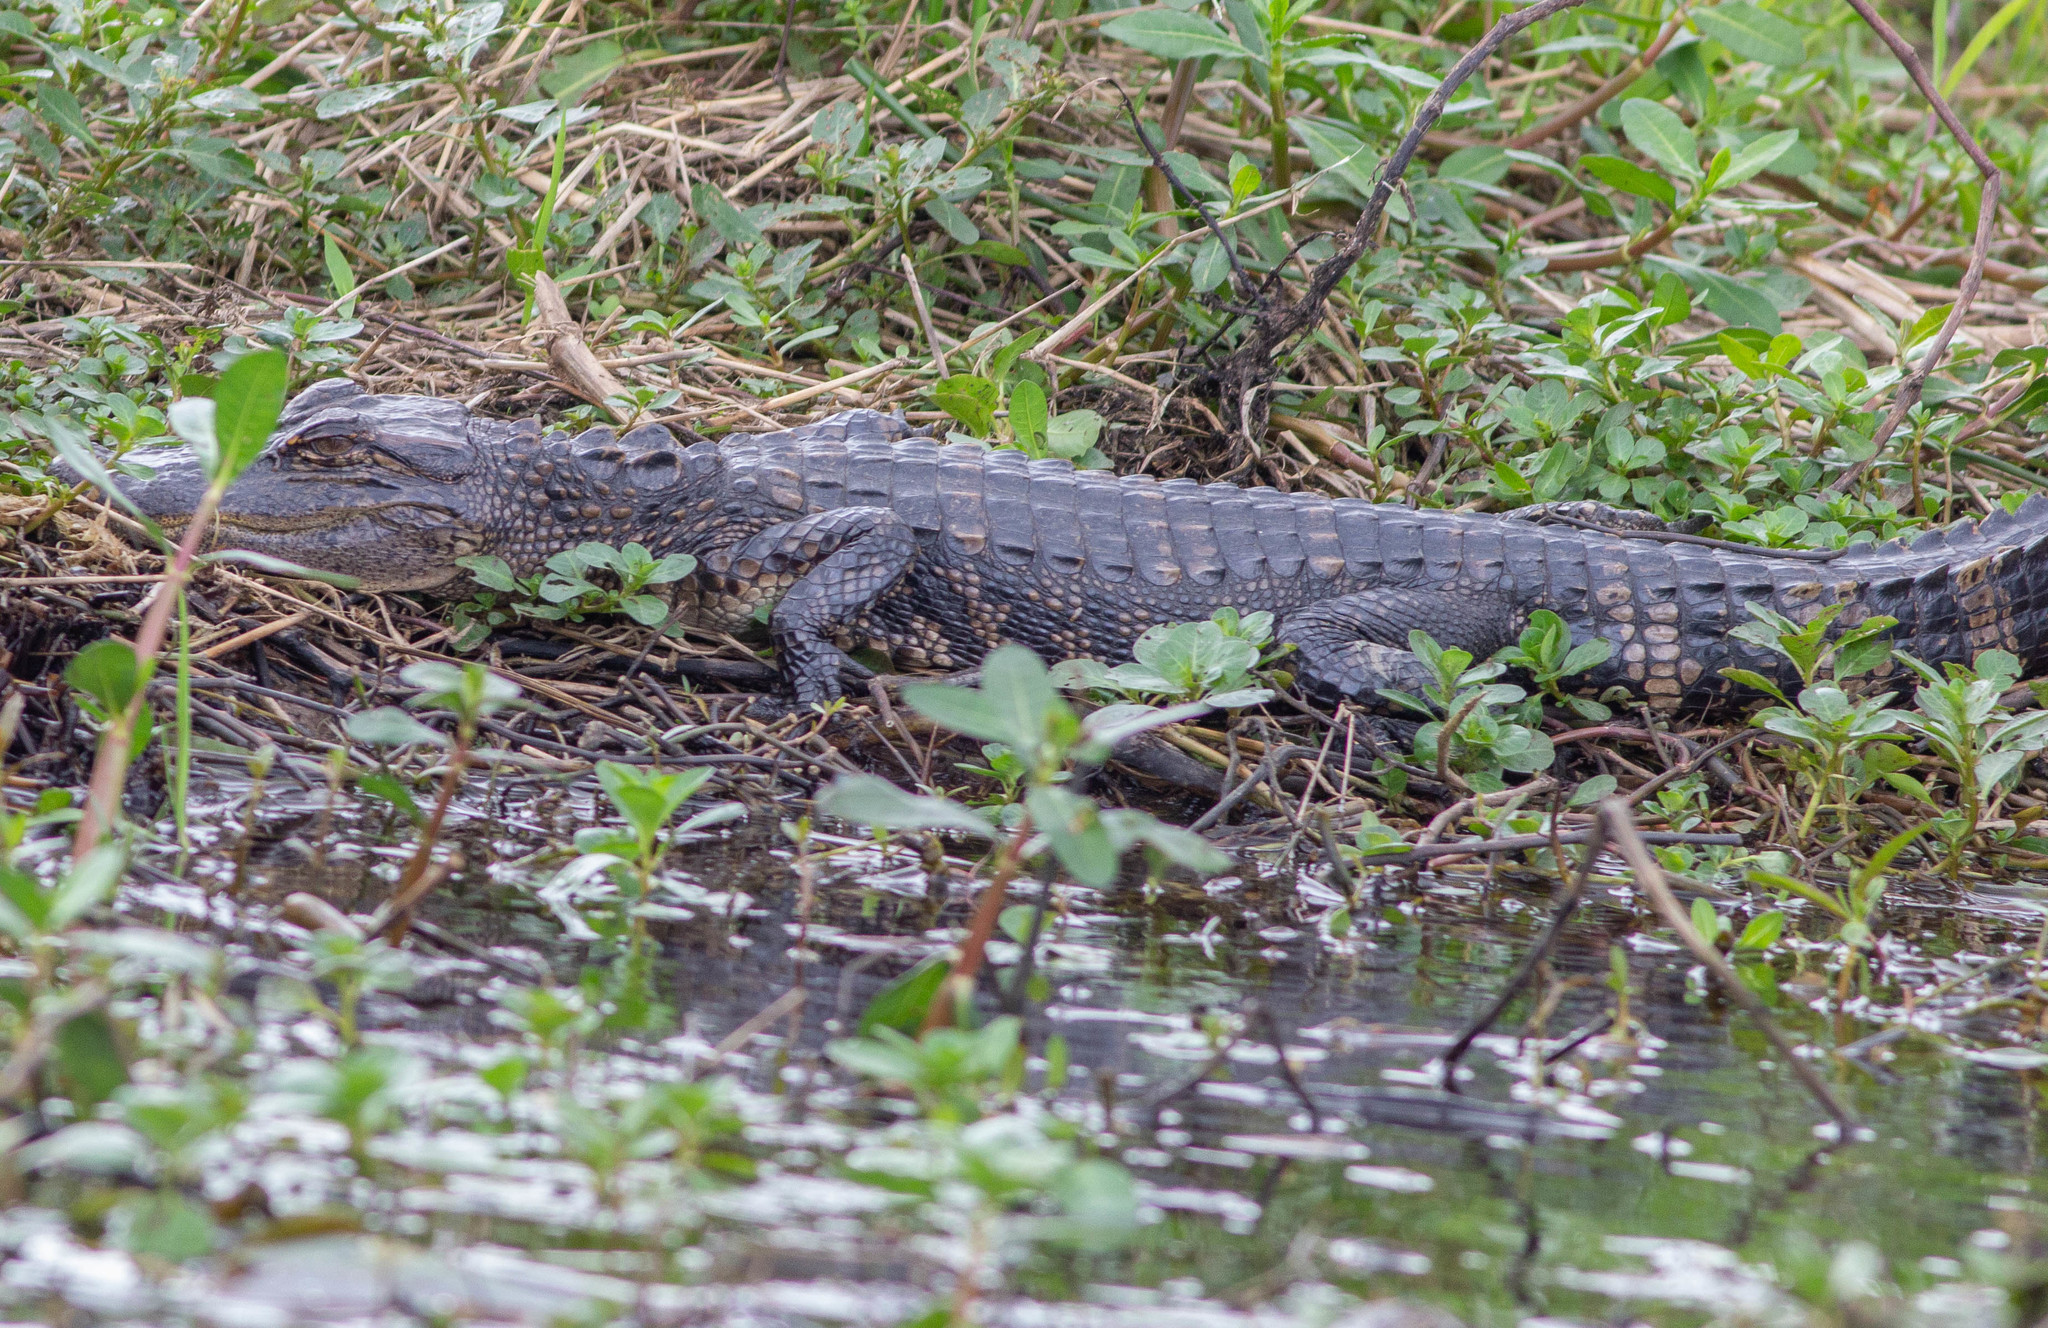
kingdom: Animalia
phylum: Chordata
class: Crocodylia
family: Alligatoridae
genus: Alligator
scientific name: Alligator mississippiensis
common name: American alligator
